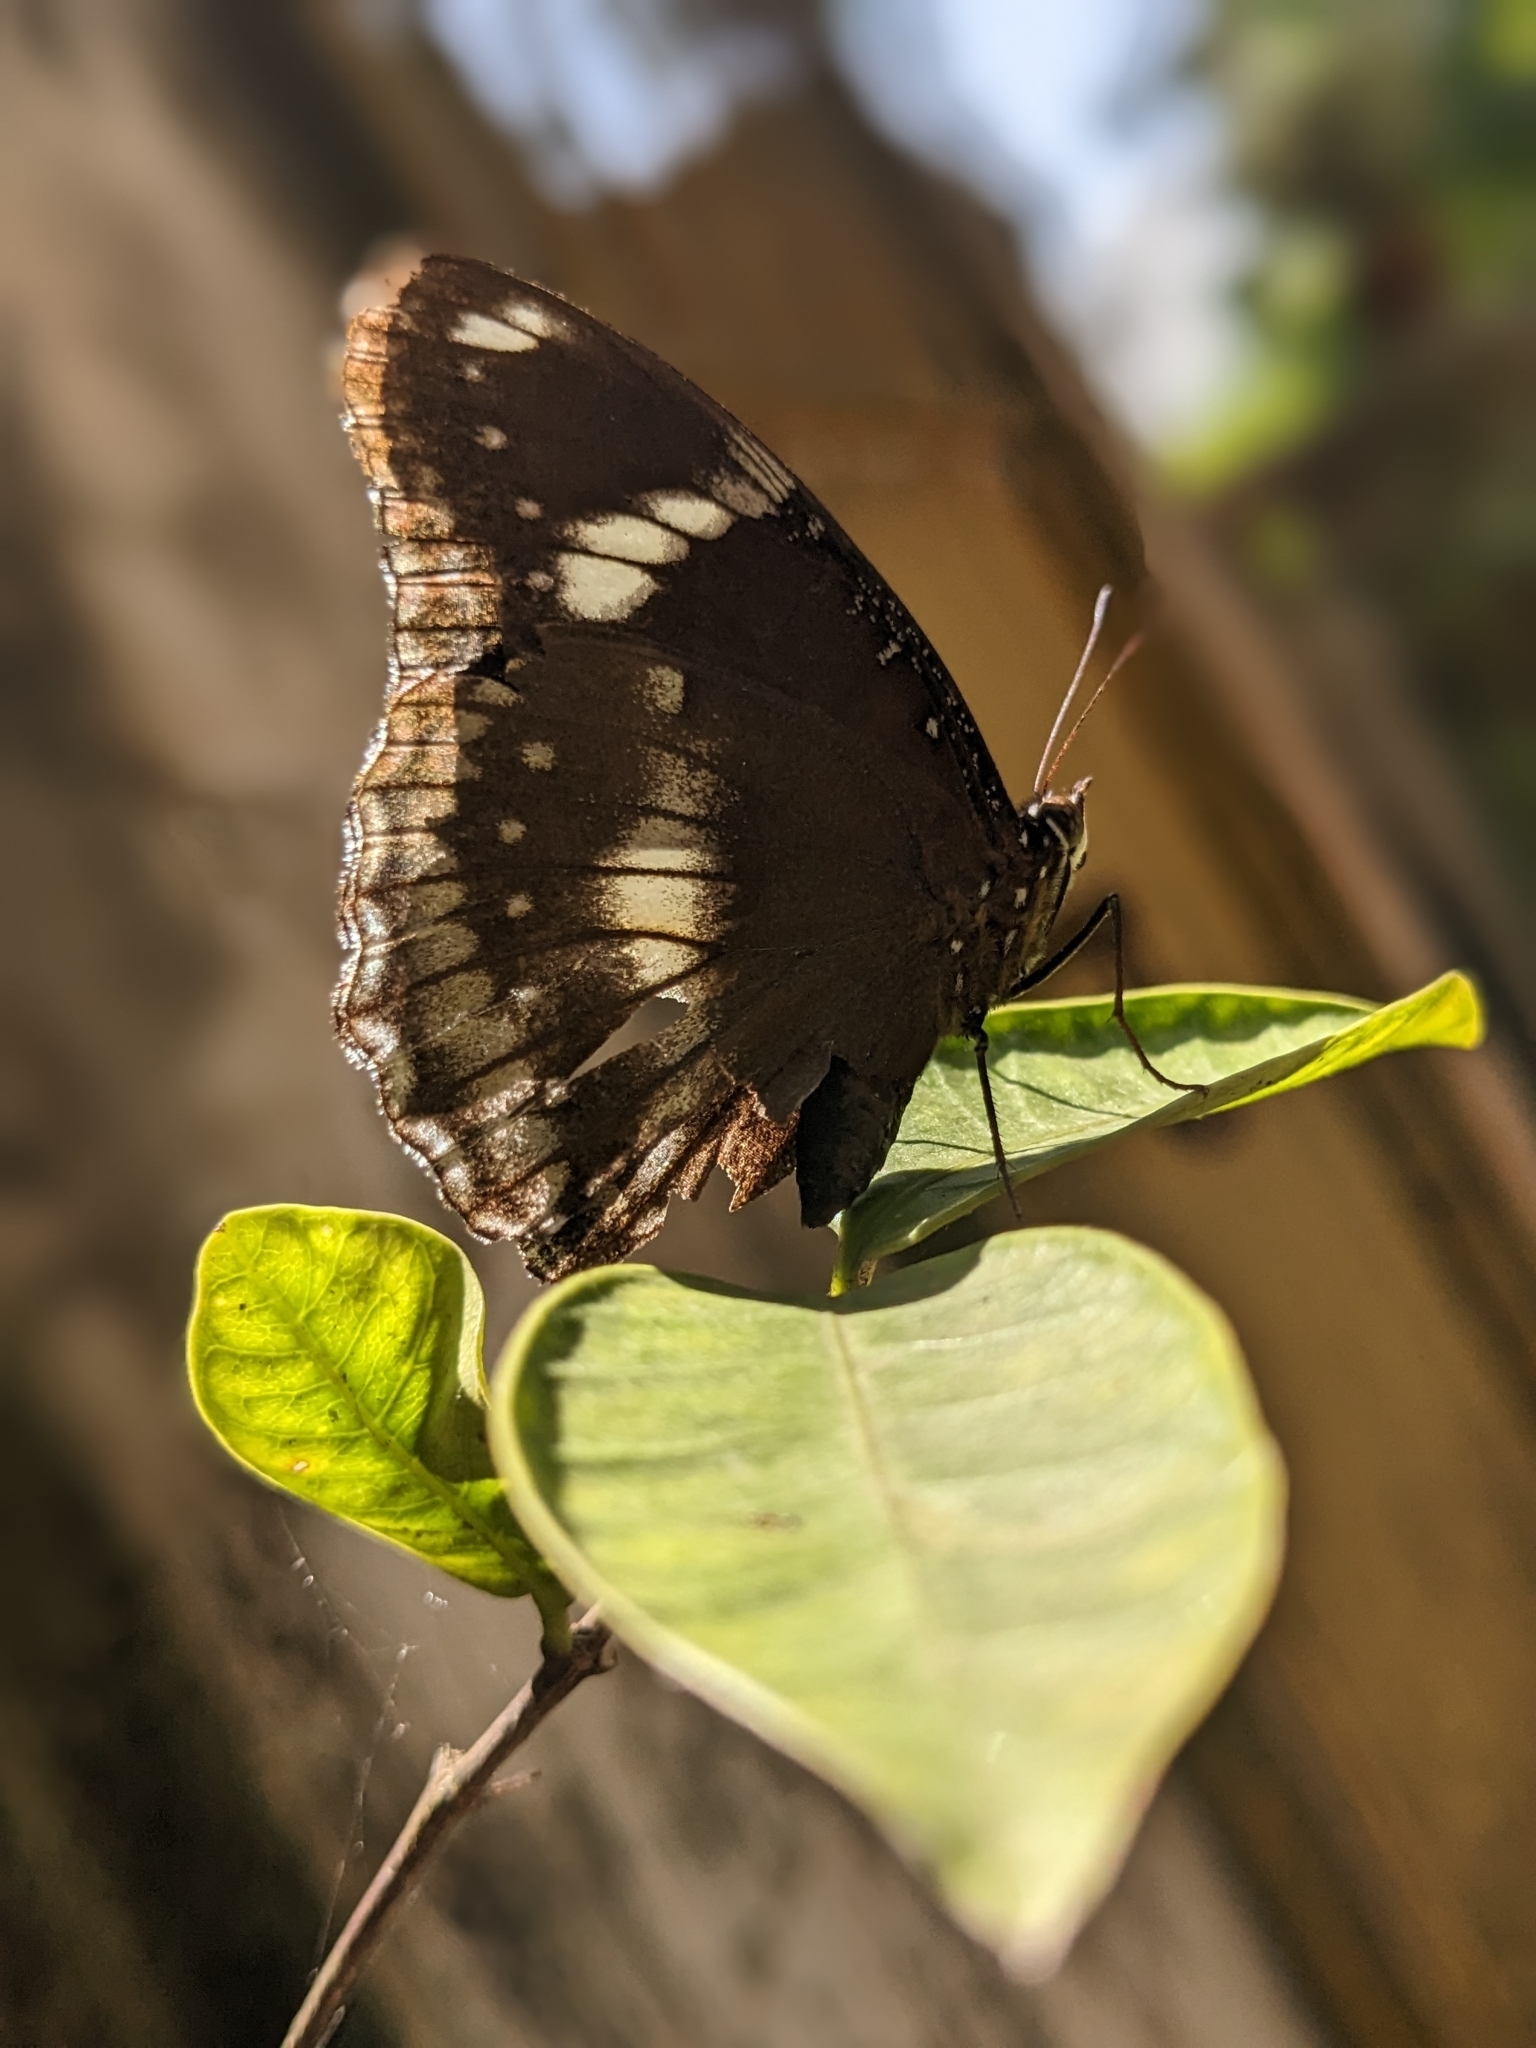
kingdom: Animalia
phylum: Arthropoda
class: Insecta
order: Lepidoptera
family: Nymphalidae
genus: Hypolimnas
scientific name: Hypolimnas bolina
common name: Great eggfly
